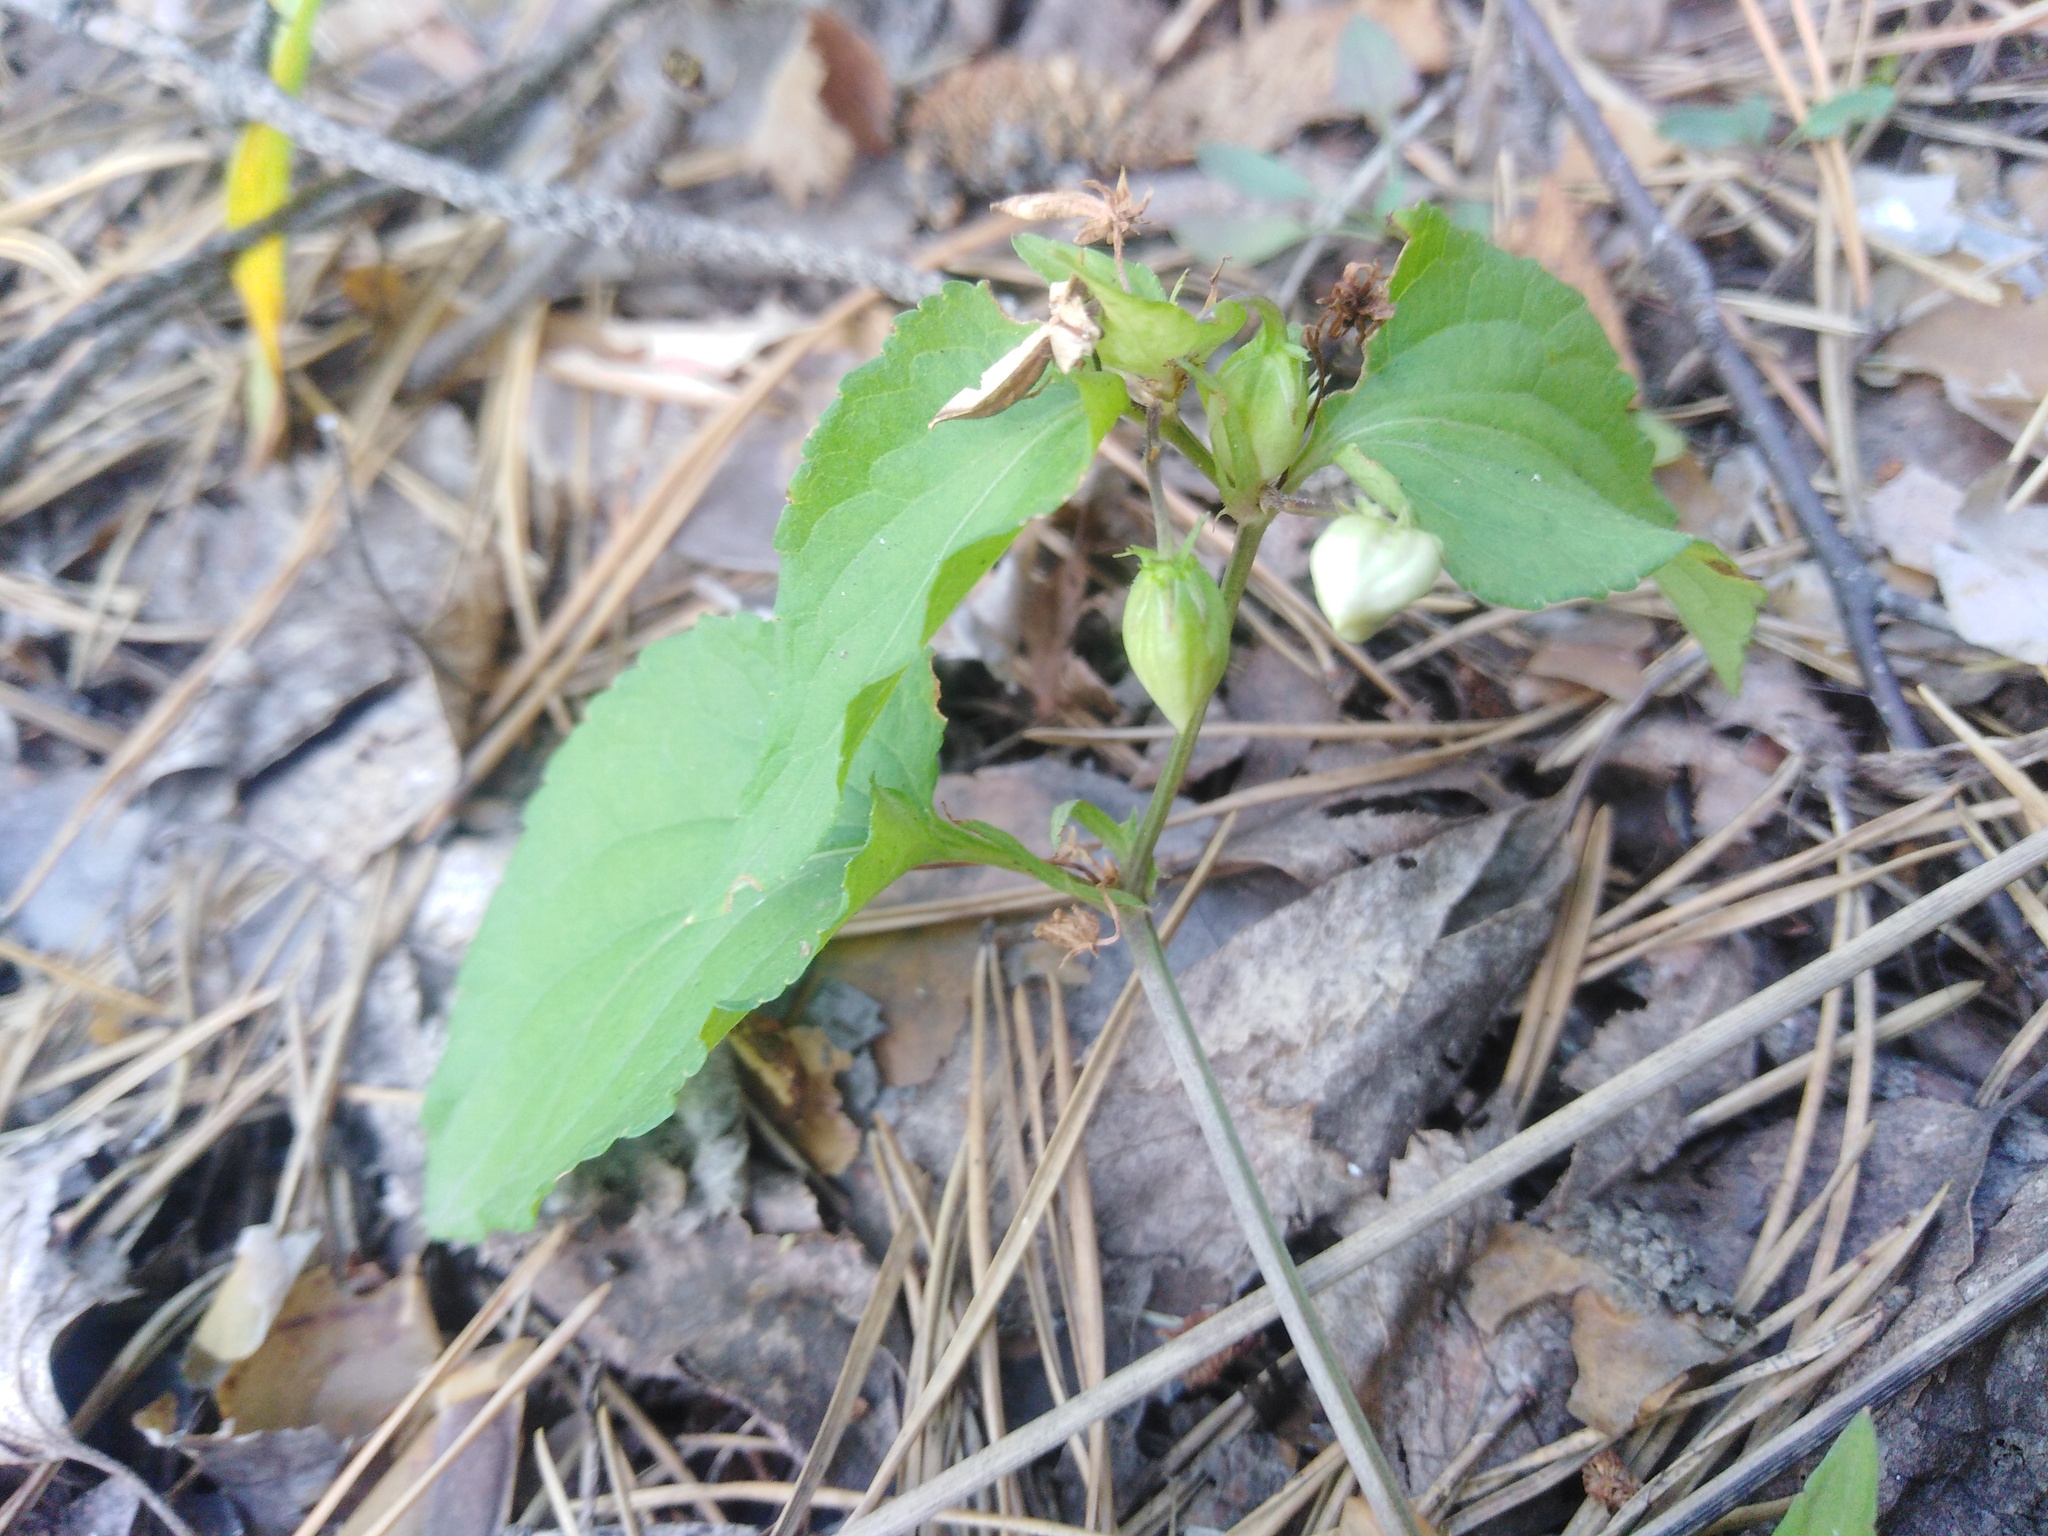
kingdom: Plantae
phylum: Tracheophyta
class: Magnoliopsida
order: Malpighiales
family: Violaceae
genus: Viola
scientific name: Viola
